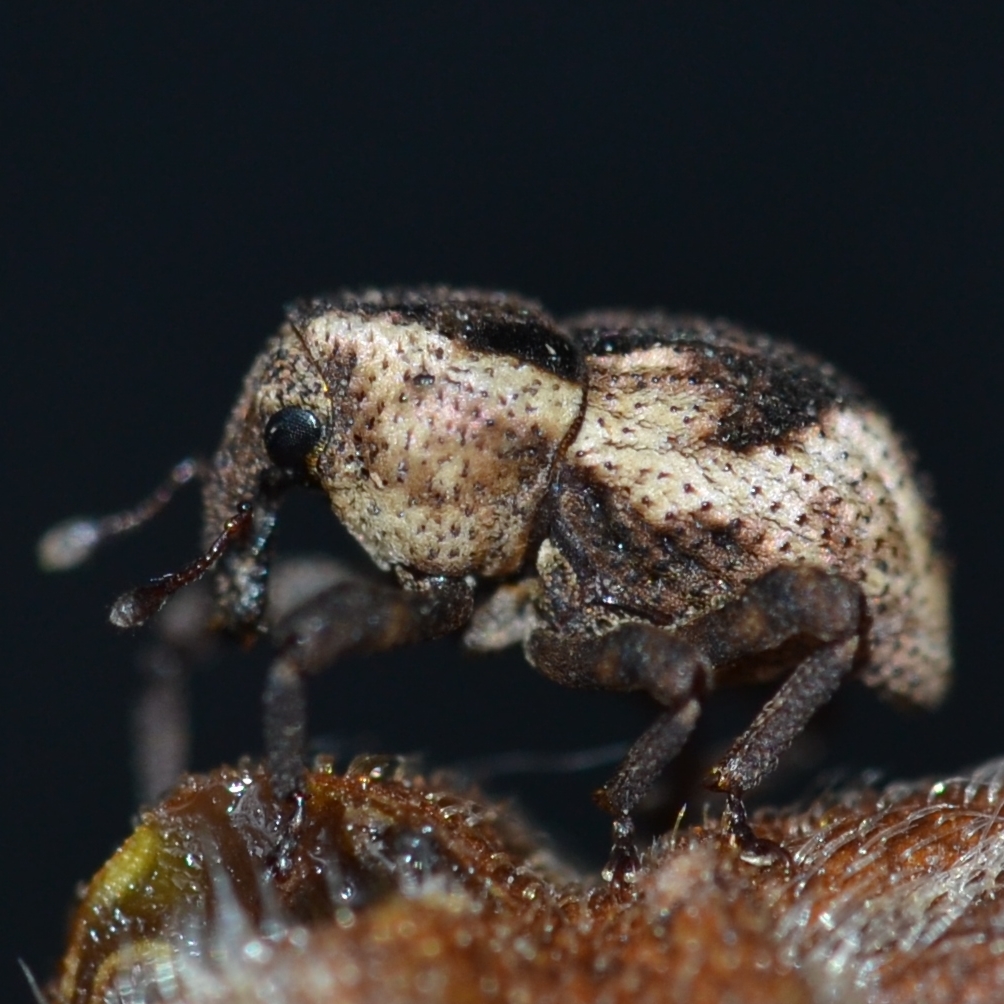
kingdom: Animalia
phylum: Arthropoda
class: Insecta
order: Coleoptera
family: Curculionidae
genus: Nothoperissops
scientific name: Nothoperissops frenatus
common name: Beetle
